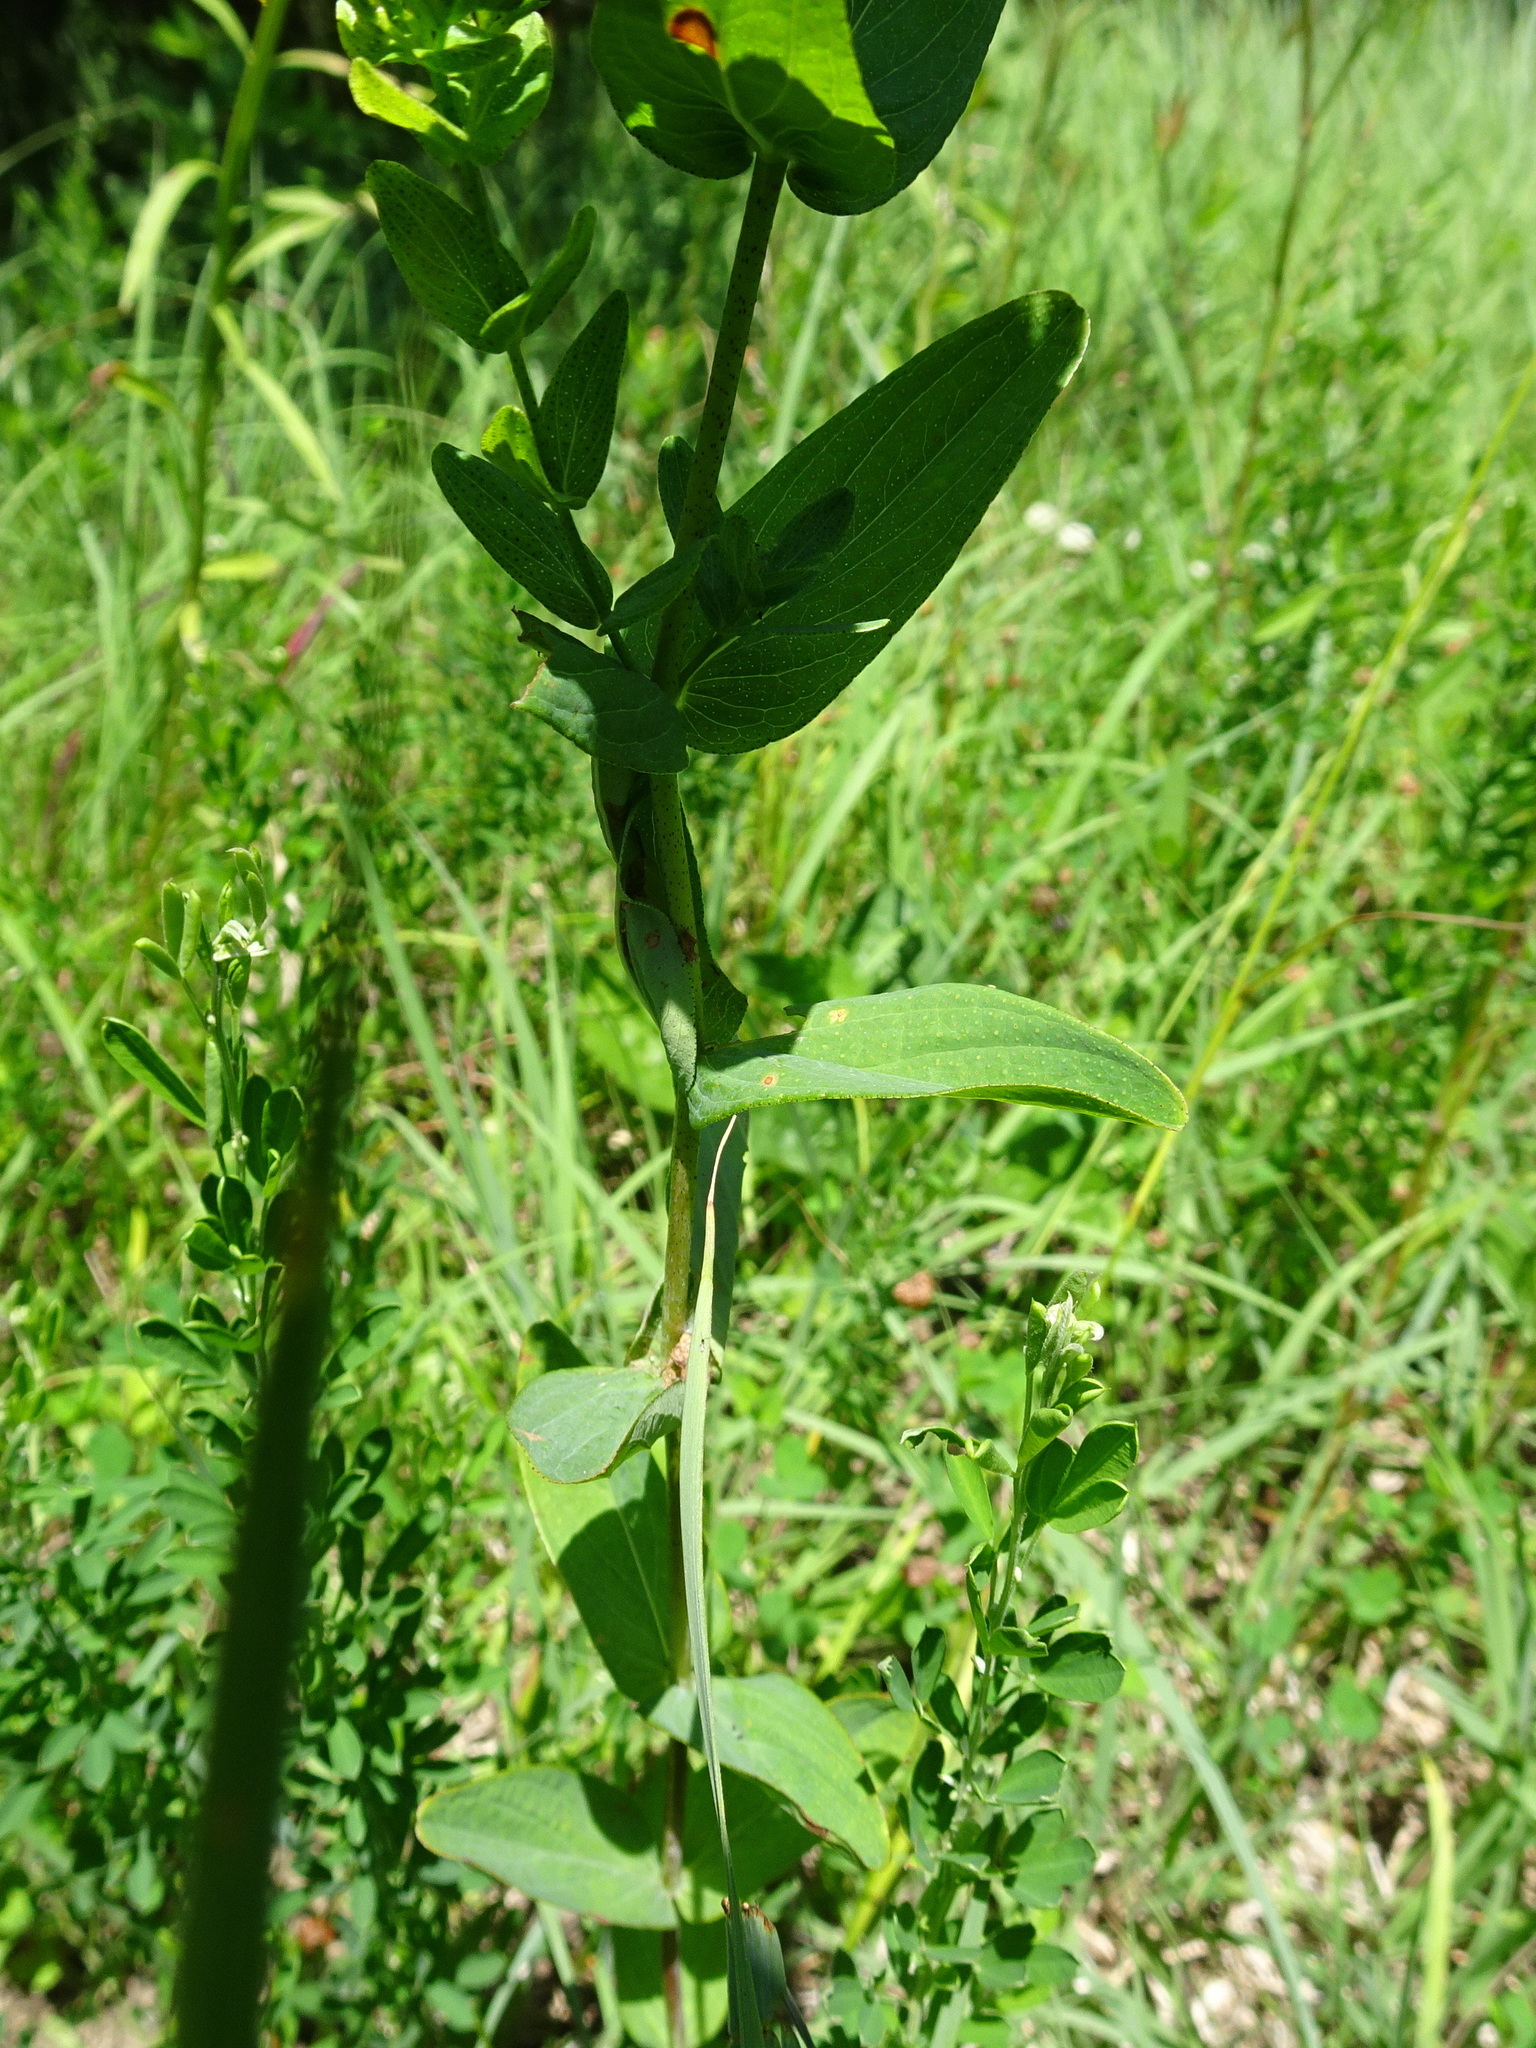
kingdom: Plantae
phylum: Tracheophyta
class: Magnoliopsida
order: Malpighiales
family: Hypericaceae
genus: Hypericum
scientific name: Hypericum punctatum
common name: Spotted st. john's-wort
